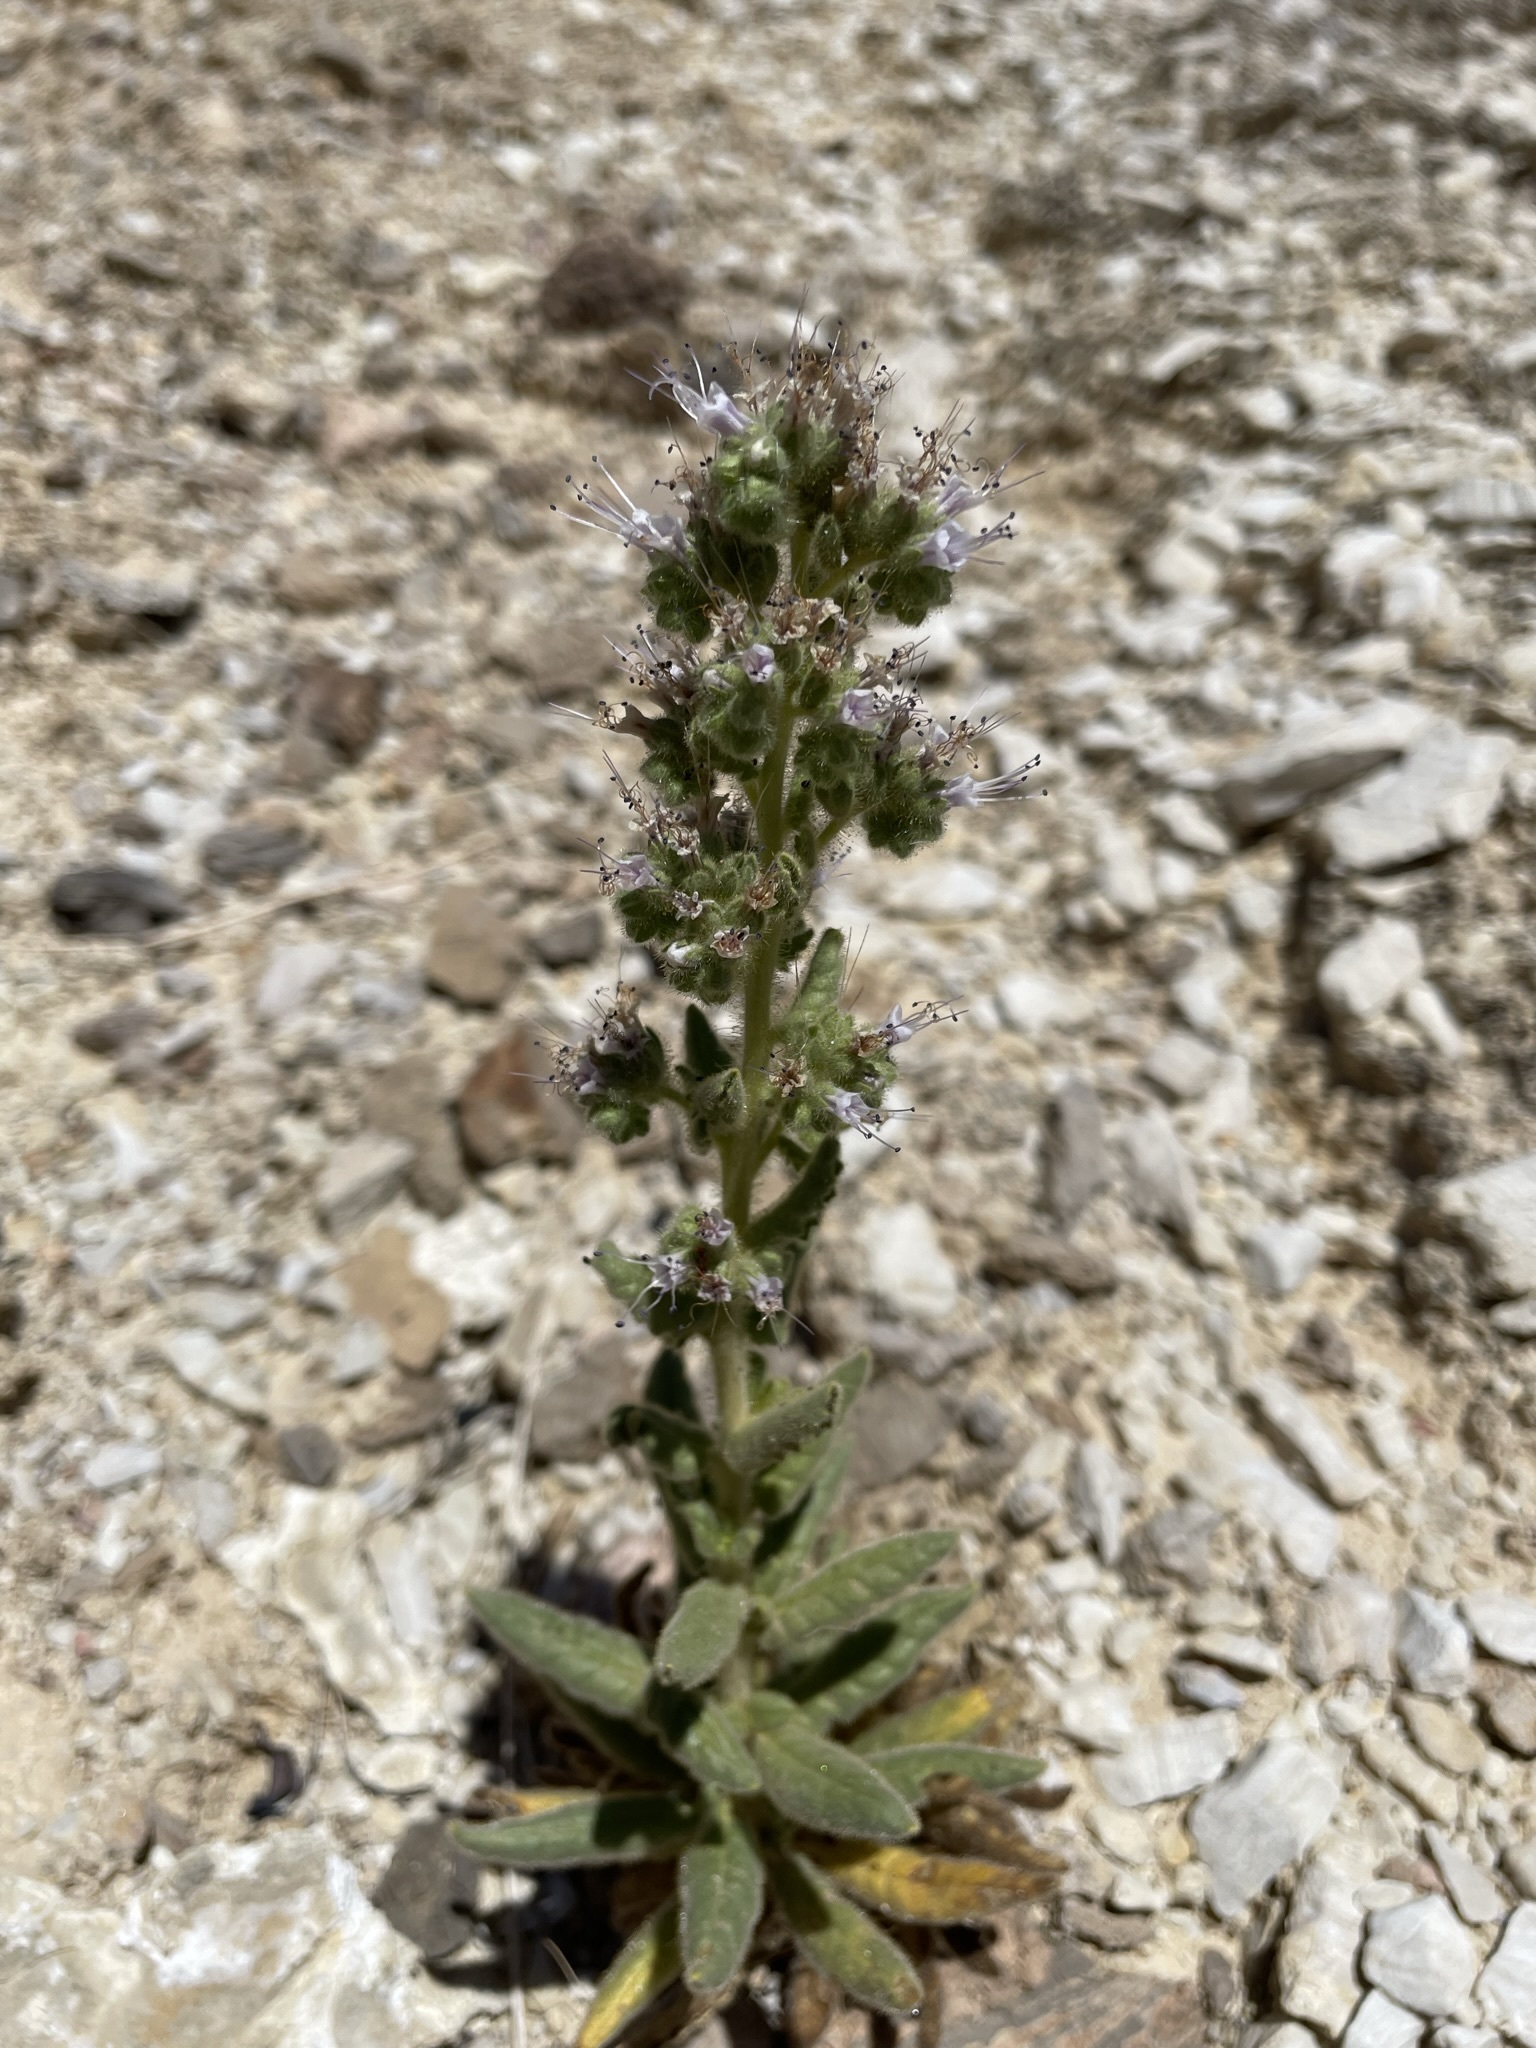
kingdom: Plantae
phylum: Tracheophyta
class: Magnoliopsida
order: Boraginales
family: Hydrophyllaceae
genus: Phacelia
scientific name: Phacelia palmeri
